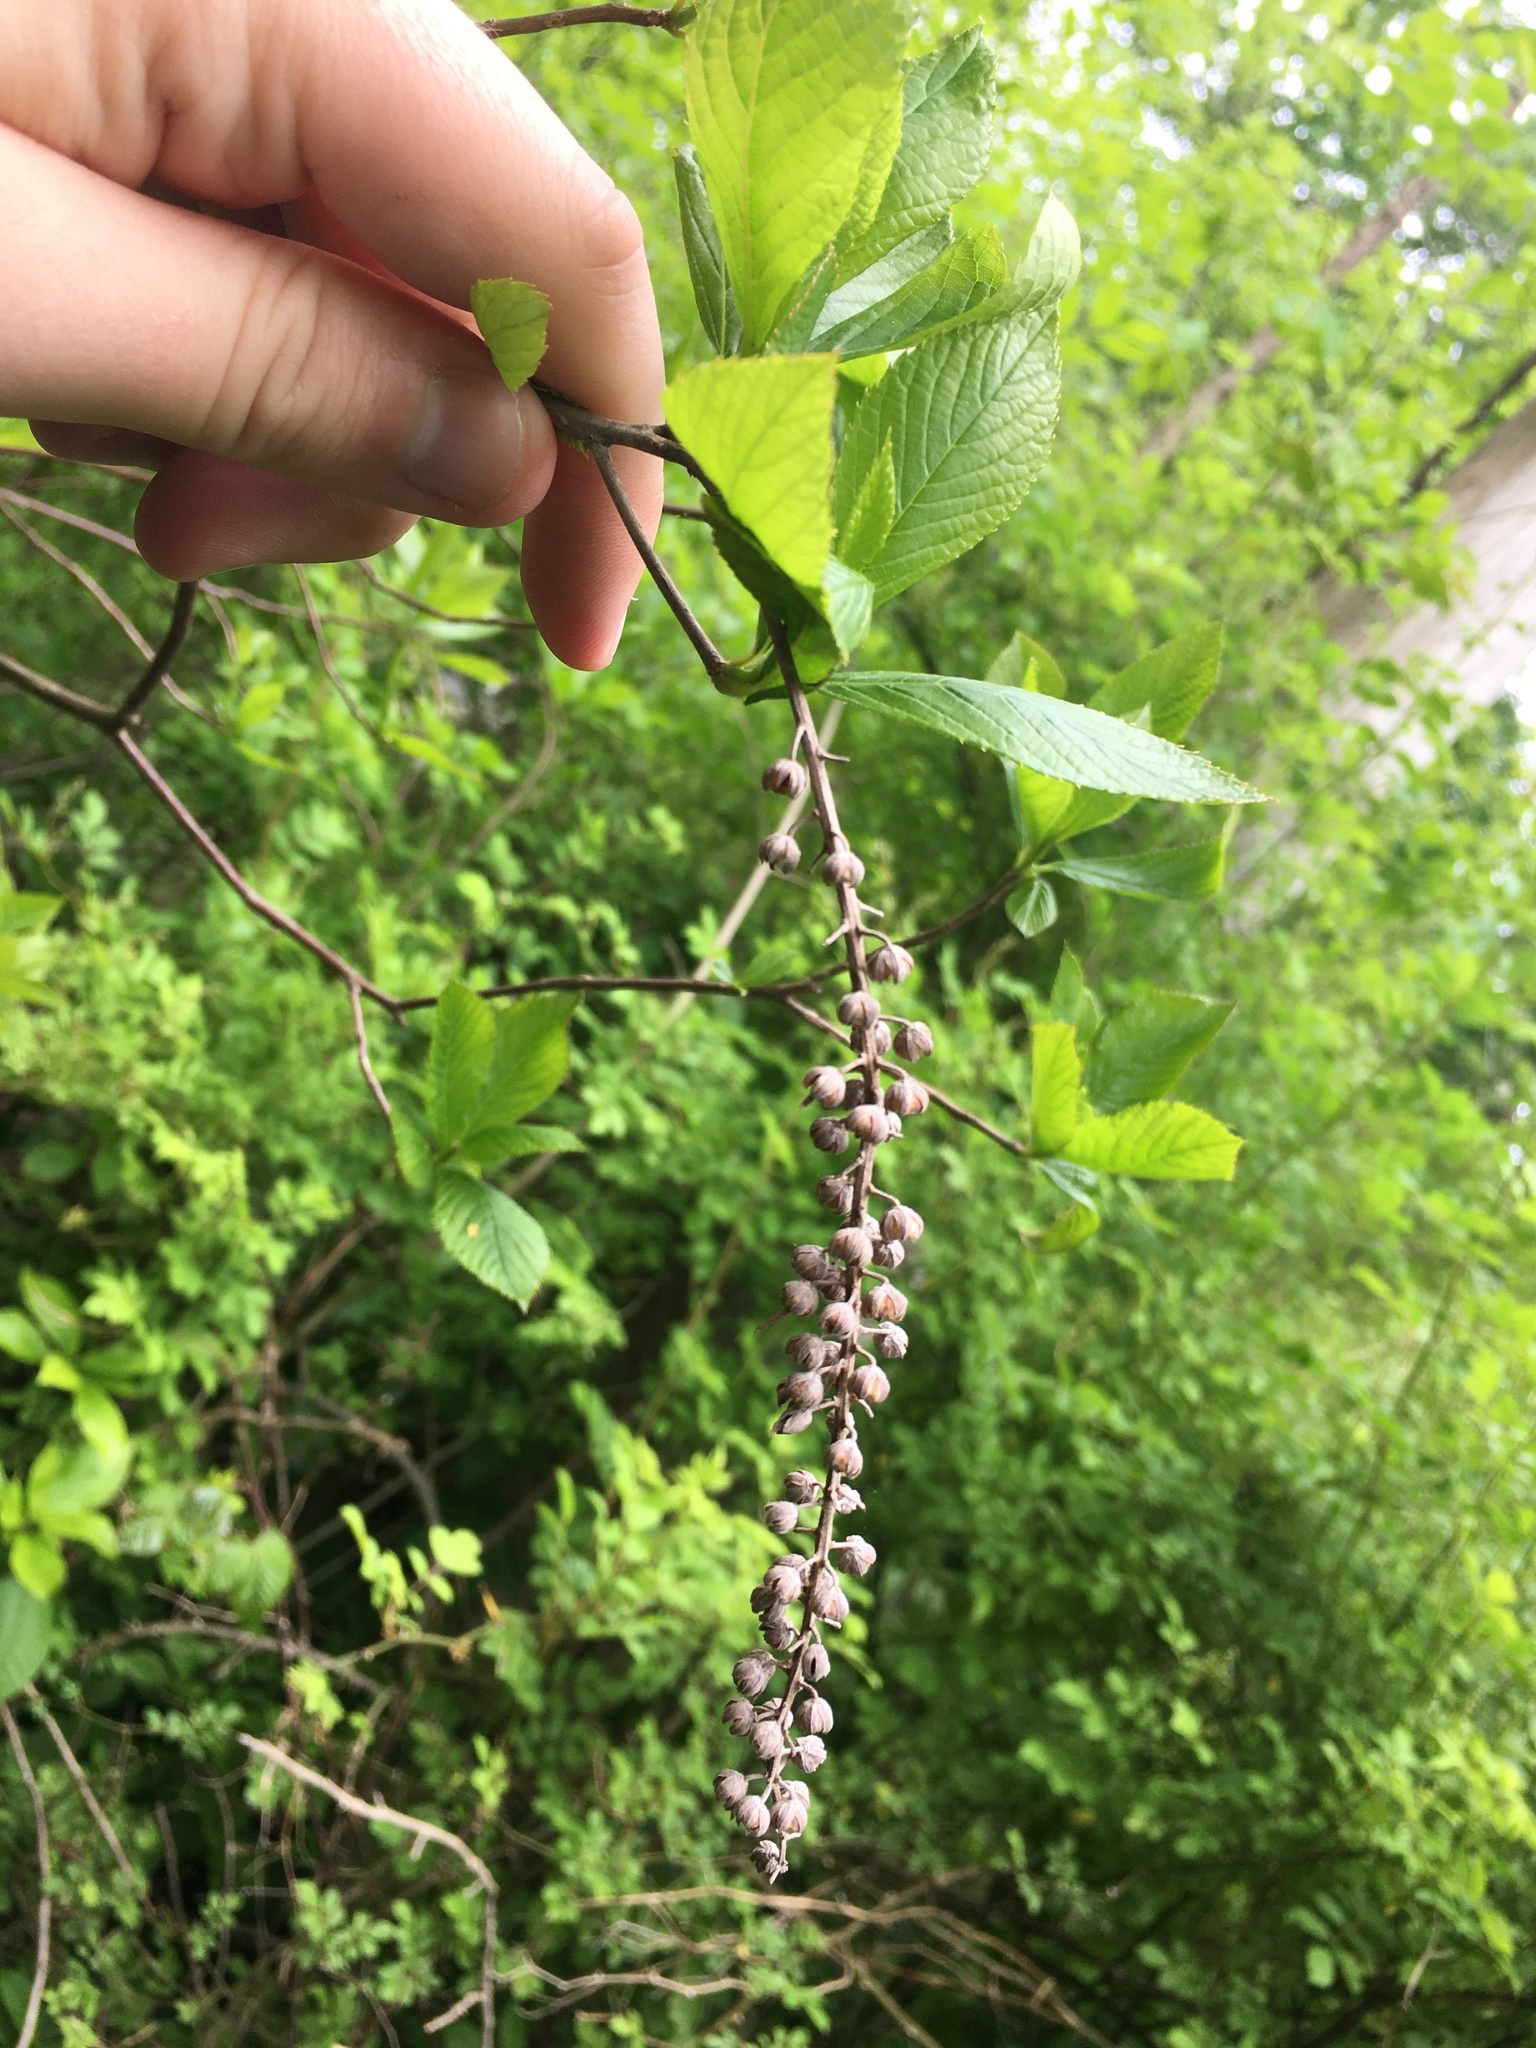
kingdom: Plantae
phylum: Tracheophyta
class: Magnoliopsida
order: Ericales
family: Clethraceae
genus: Clethra
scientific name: Clethra alnifolia
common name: Sweet pepperbush
